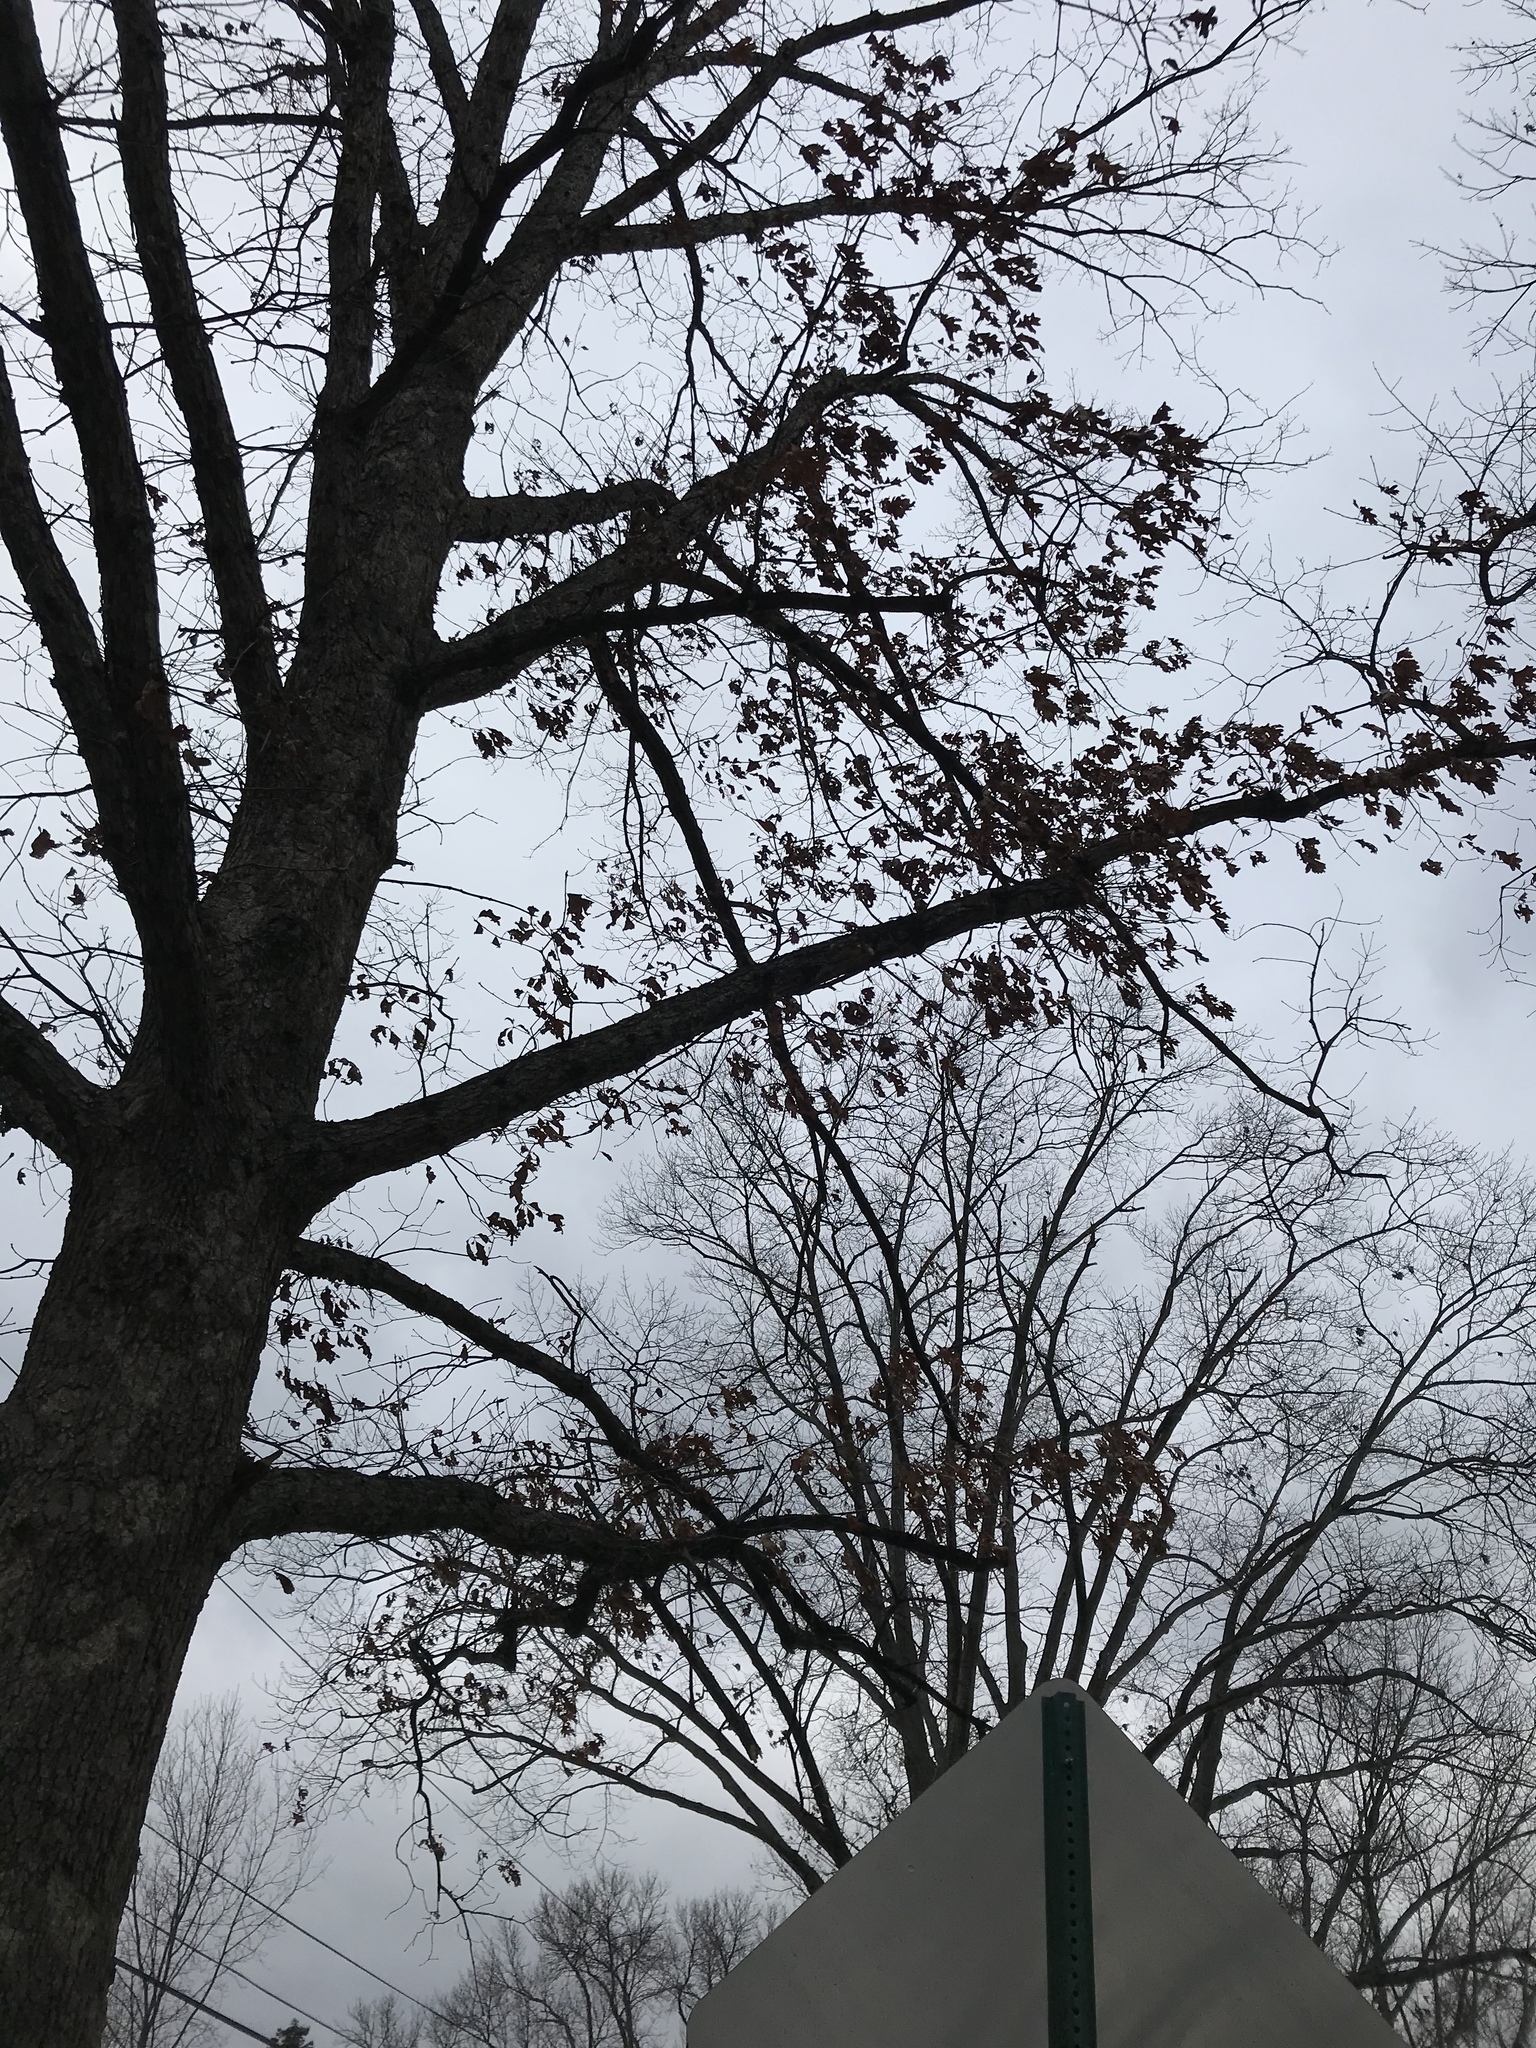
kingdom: Plantae
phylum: Tracheophyta
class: Magnoliopsida
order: Fagales
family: Fagaceae
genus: Quercus
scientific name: Quercus alba
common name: White oak
